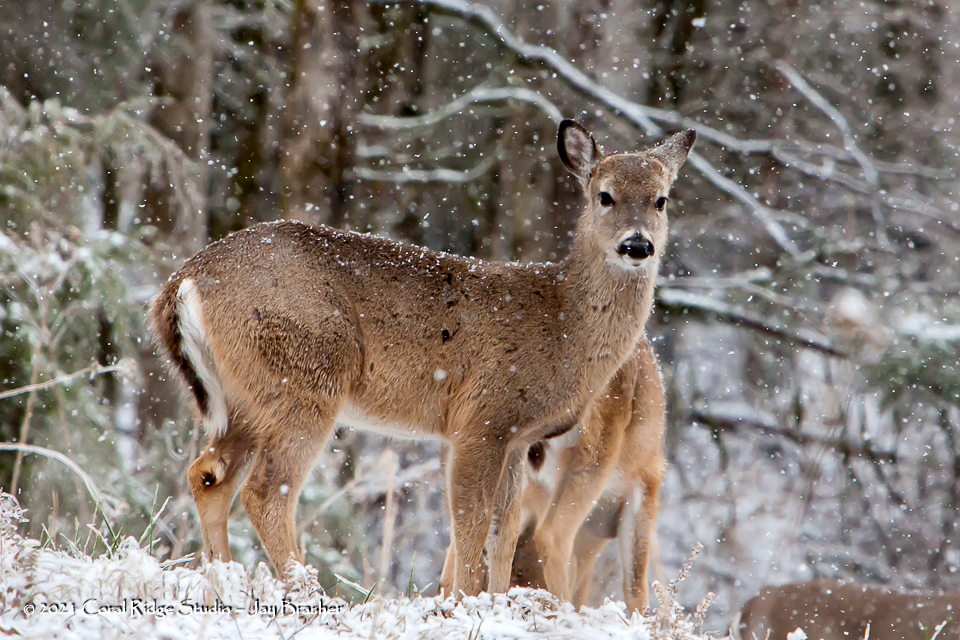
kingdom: Animalia
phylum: Chordata
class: Mammalia
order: Artiodactyla
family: Cervidae
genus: Odocoileus
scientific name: Odocoileus virginianus
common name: White-tailed deer
